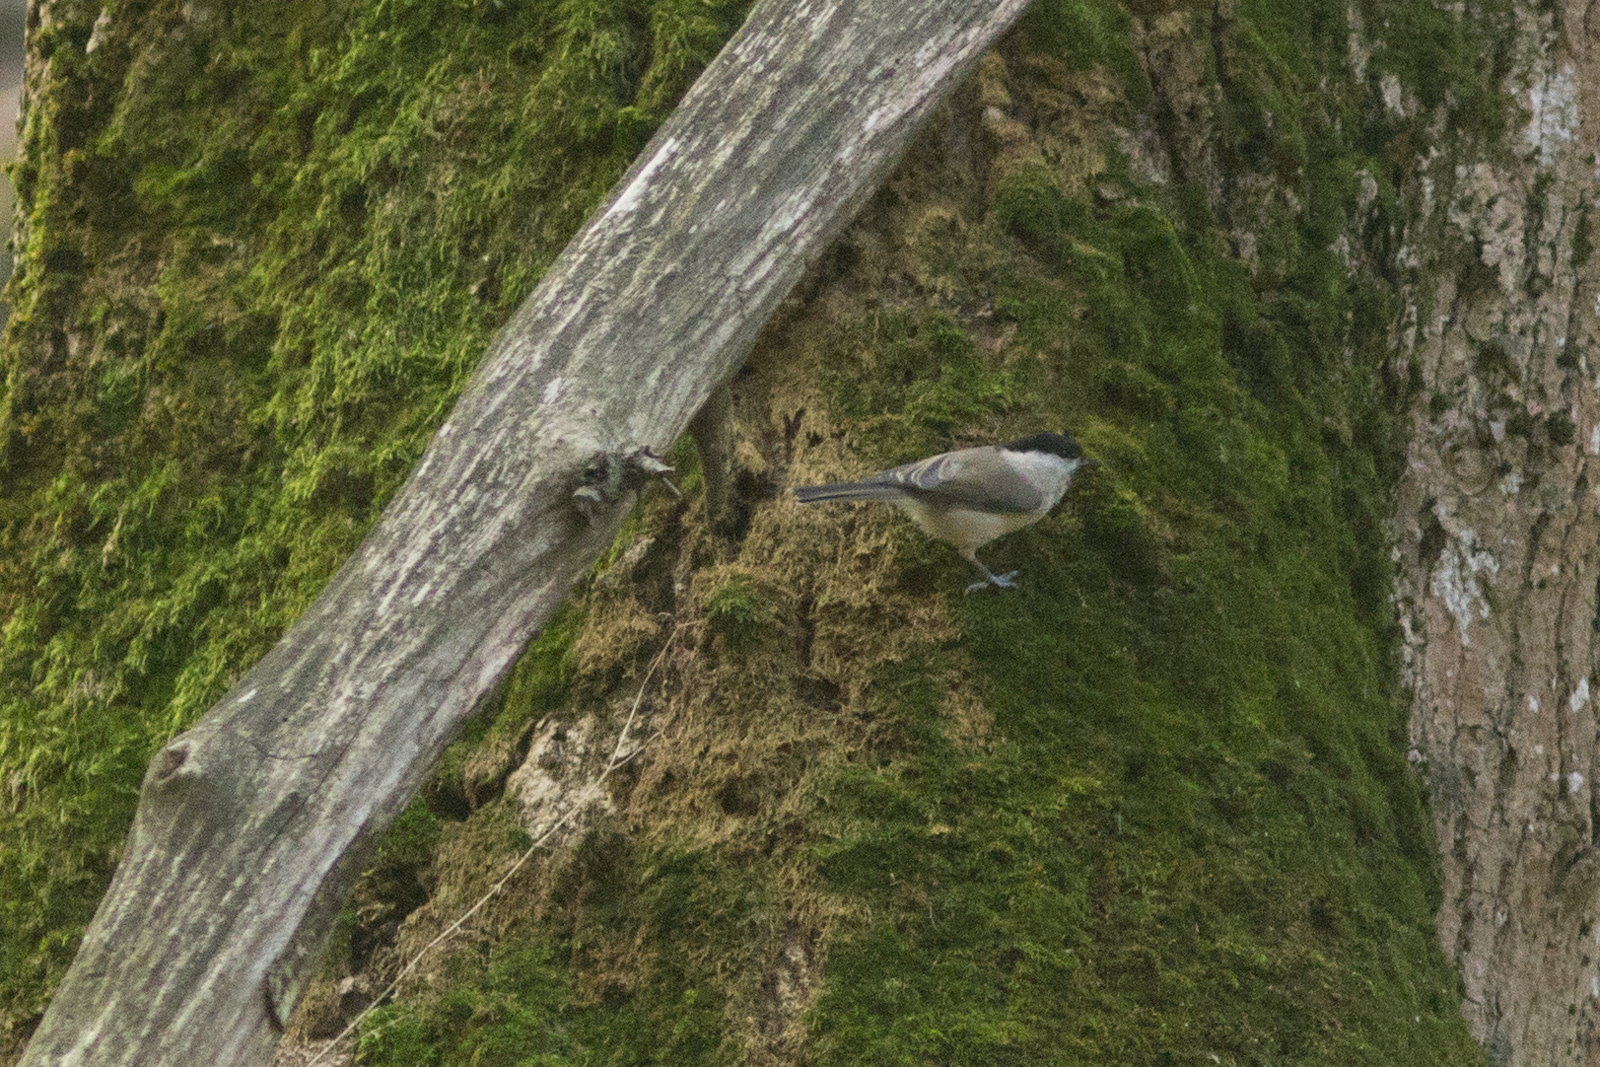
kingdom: Animalia
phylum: Chordata
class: Aves
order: Passeriformes
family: Paridae
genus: Poecile
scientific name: Poecile palustris
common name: Marsh tit
